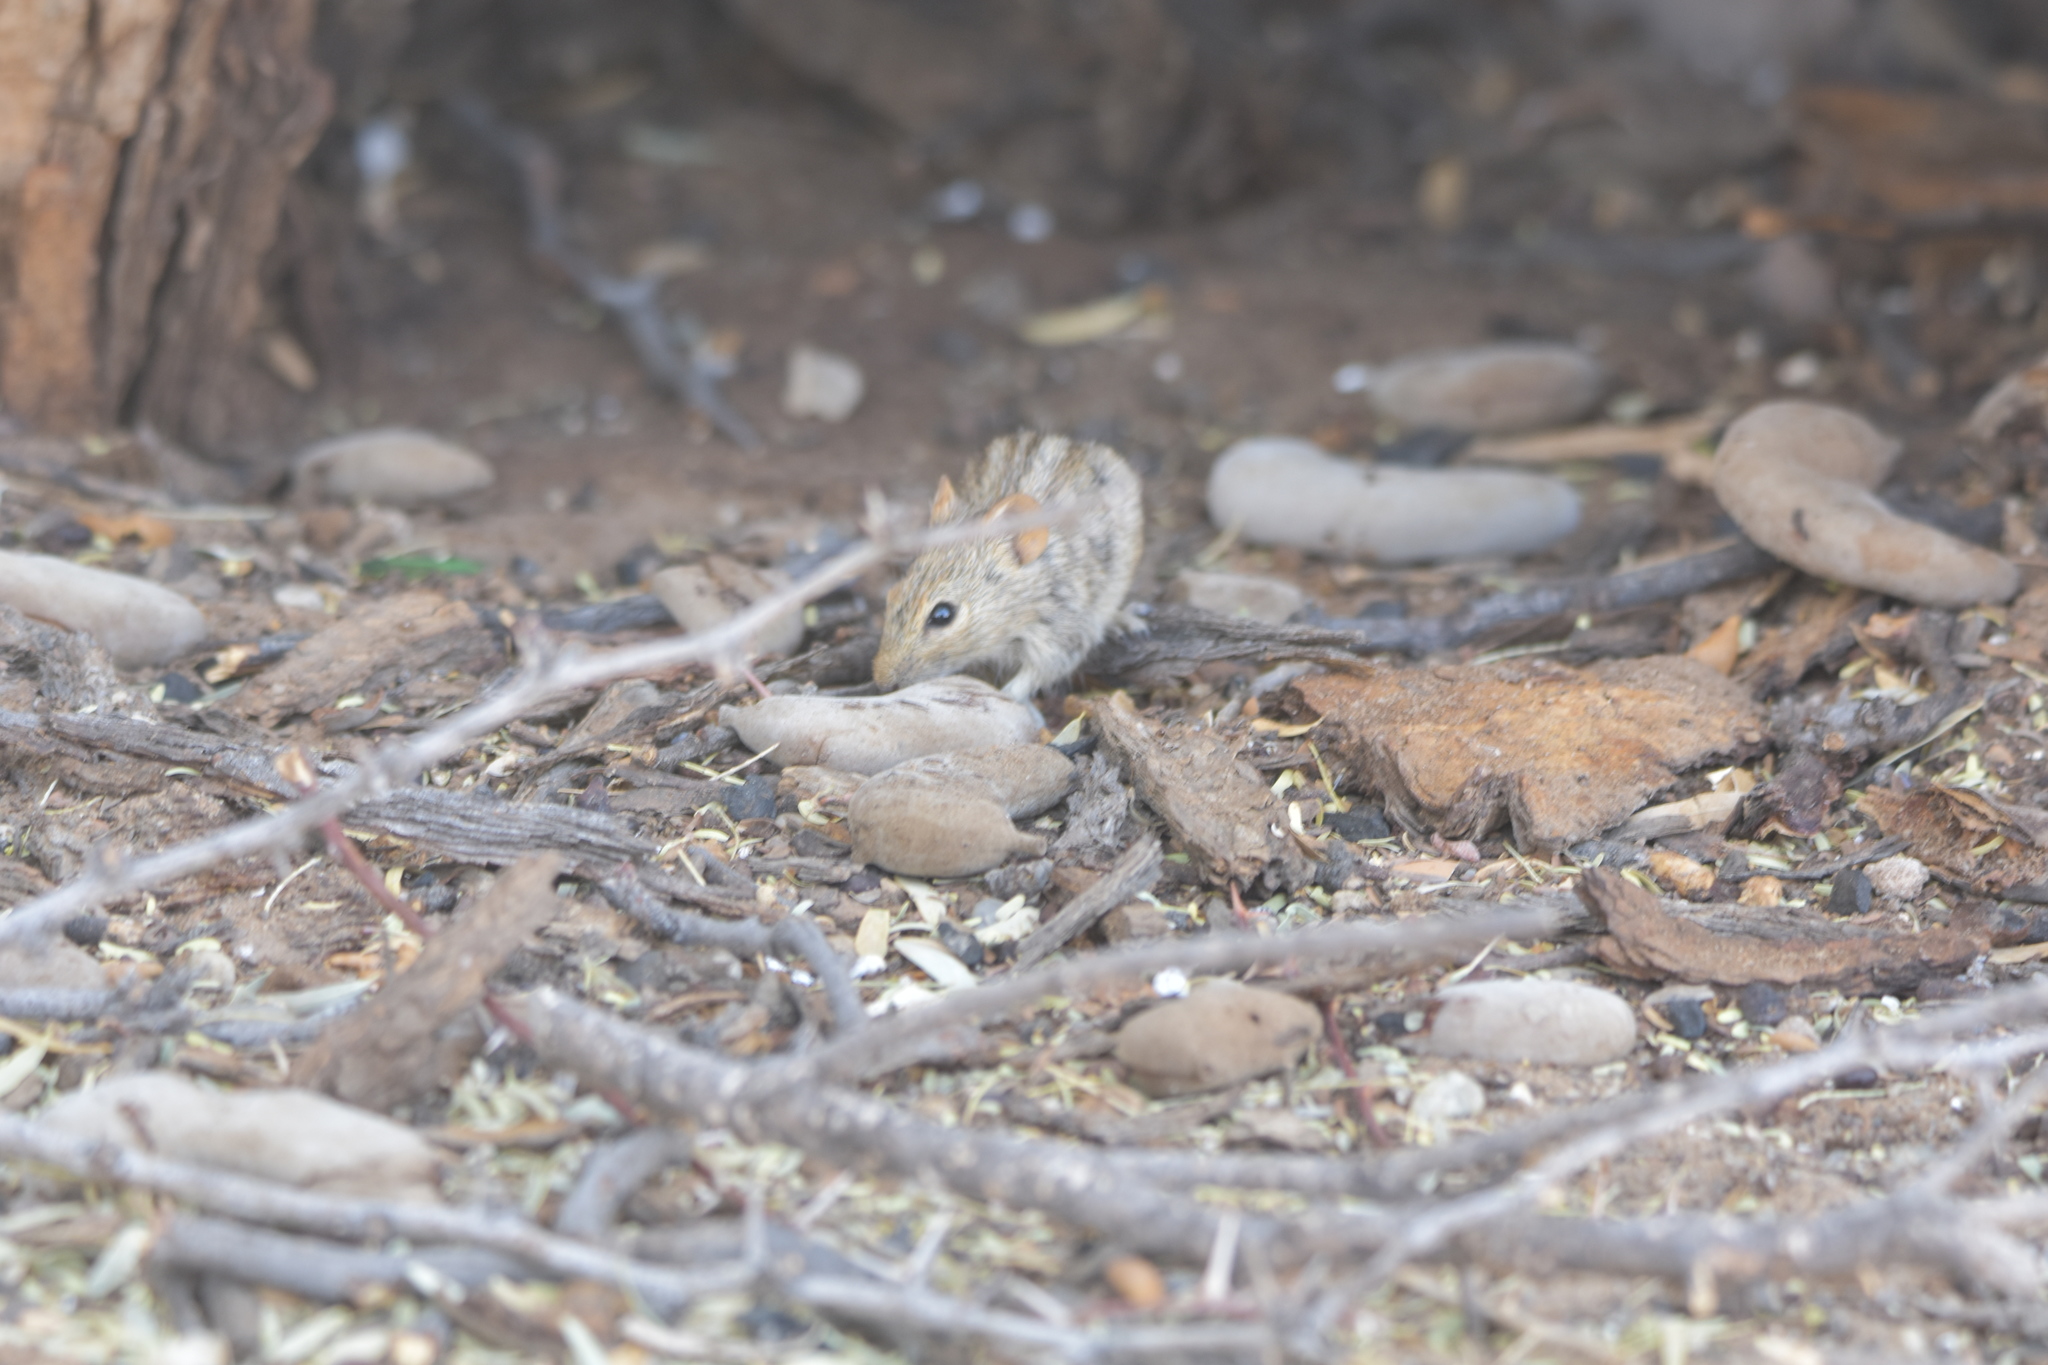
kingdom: Animalia
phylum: Chordata
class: Mammalia
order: Rodentia
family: Muridae
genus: Rhabdomys
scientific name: Rhabdomys pumilio
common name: Xeric four-striped grass rat
